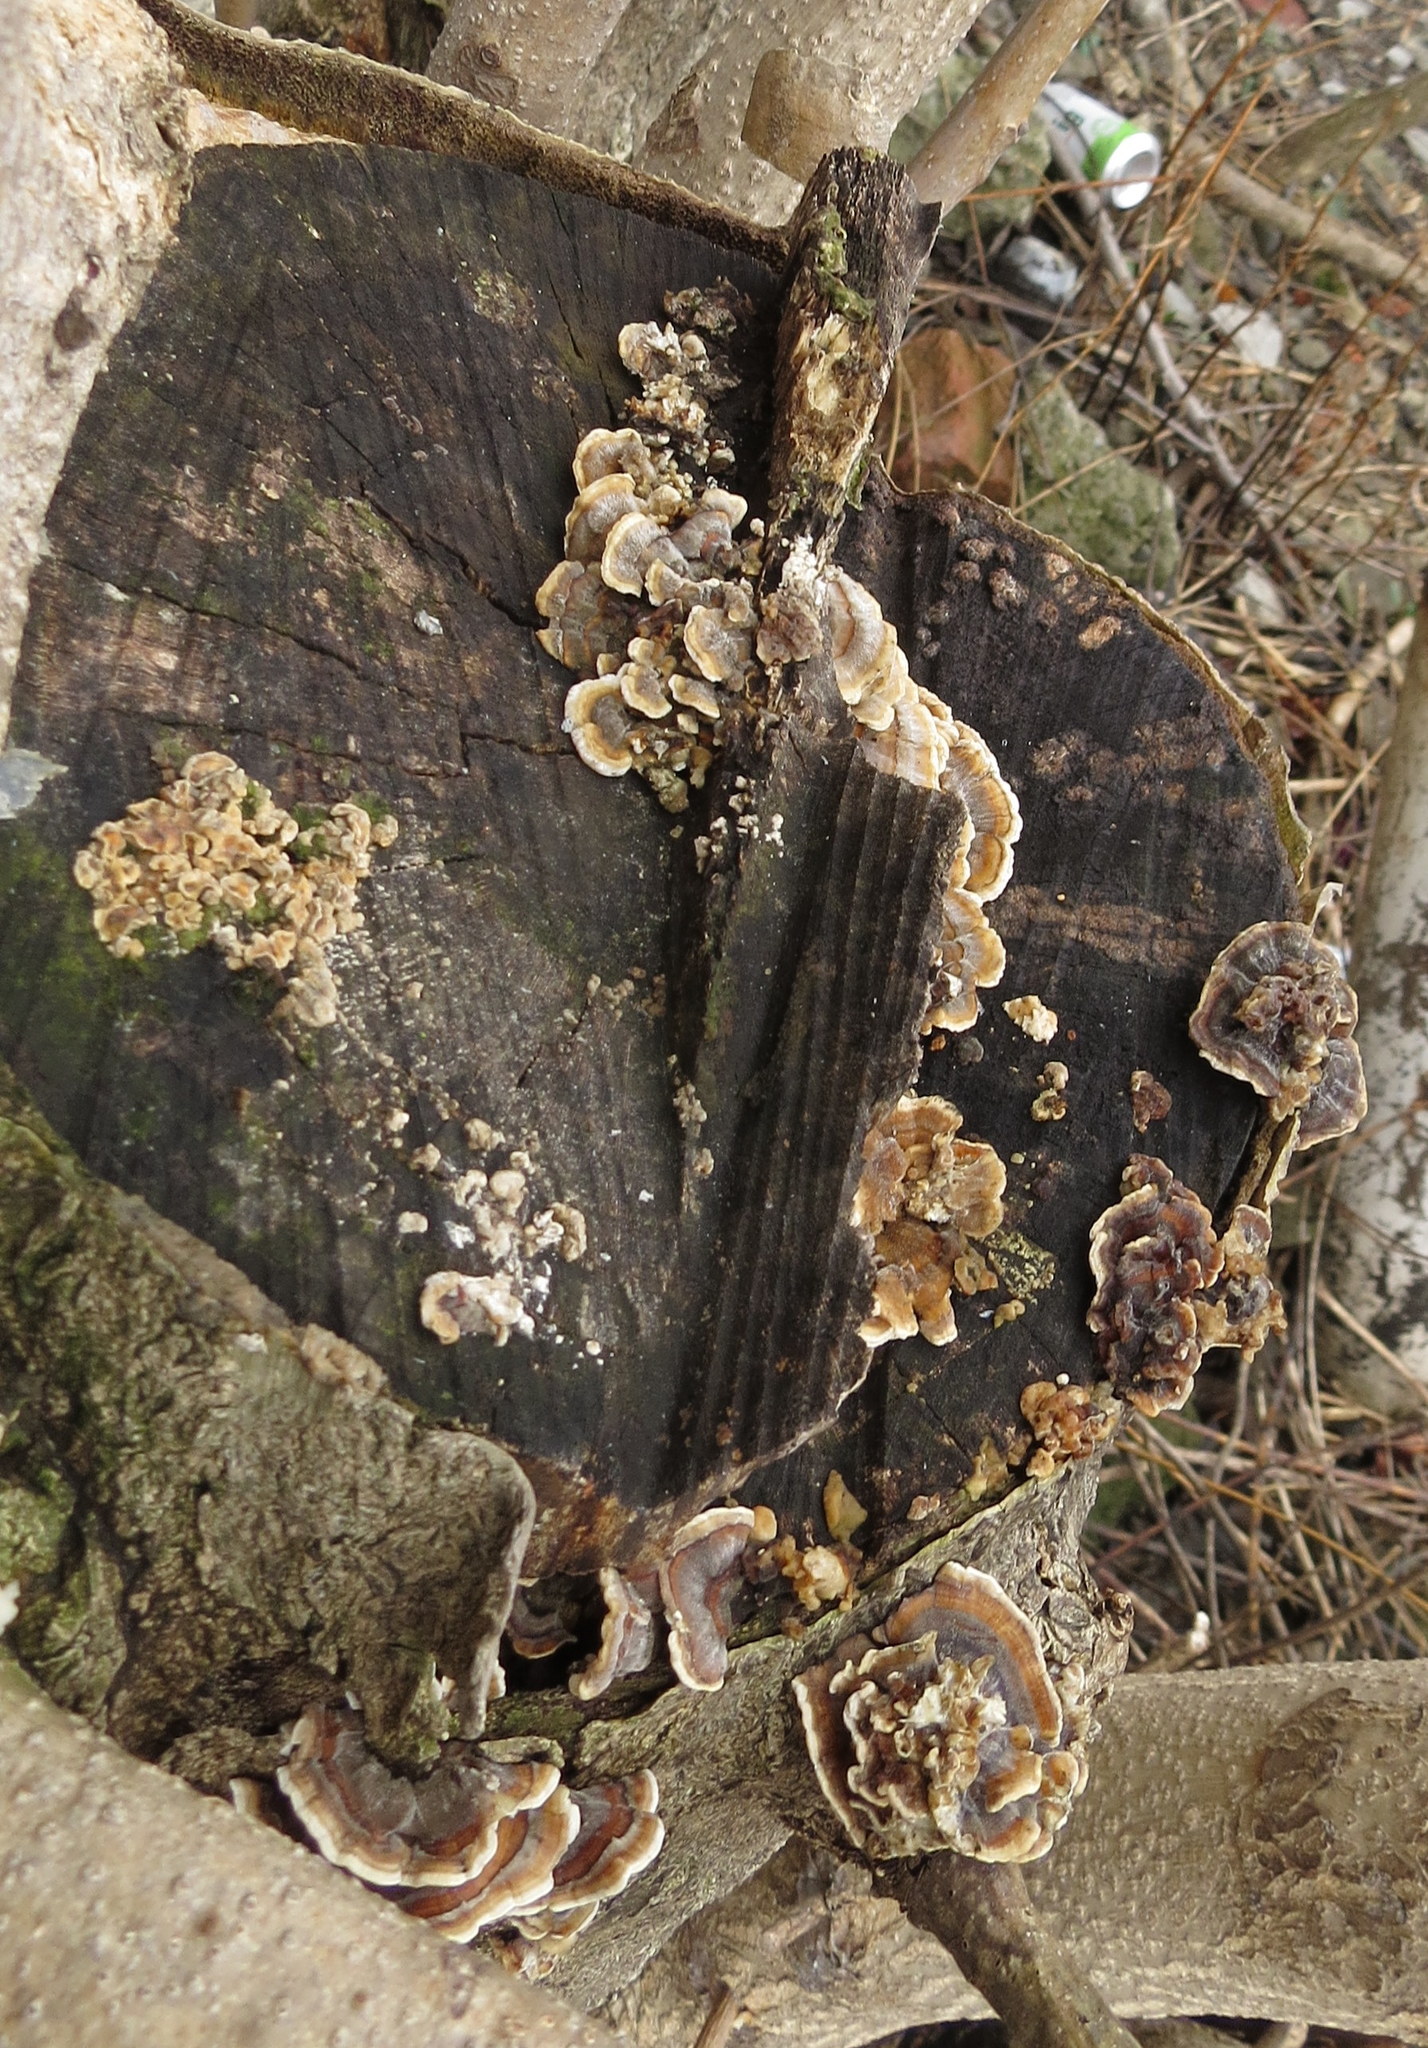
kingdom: Fungi
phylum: Basidiomycota
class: Agaricomycetes
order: Polyporales
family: Polyporaceae
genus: Trametes
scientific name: Trametes versicolor
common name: Turkeytail
